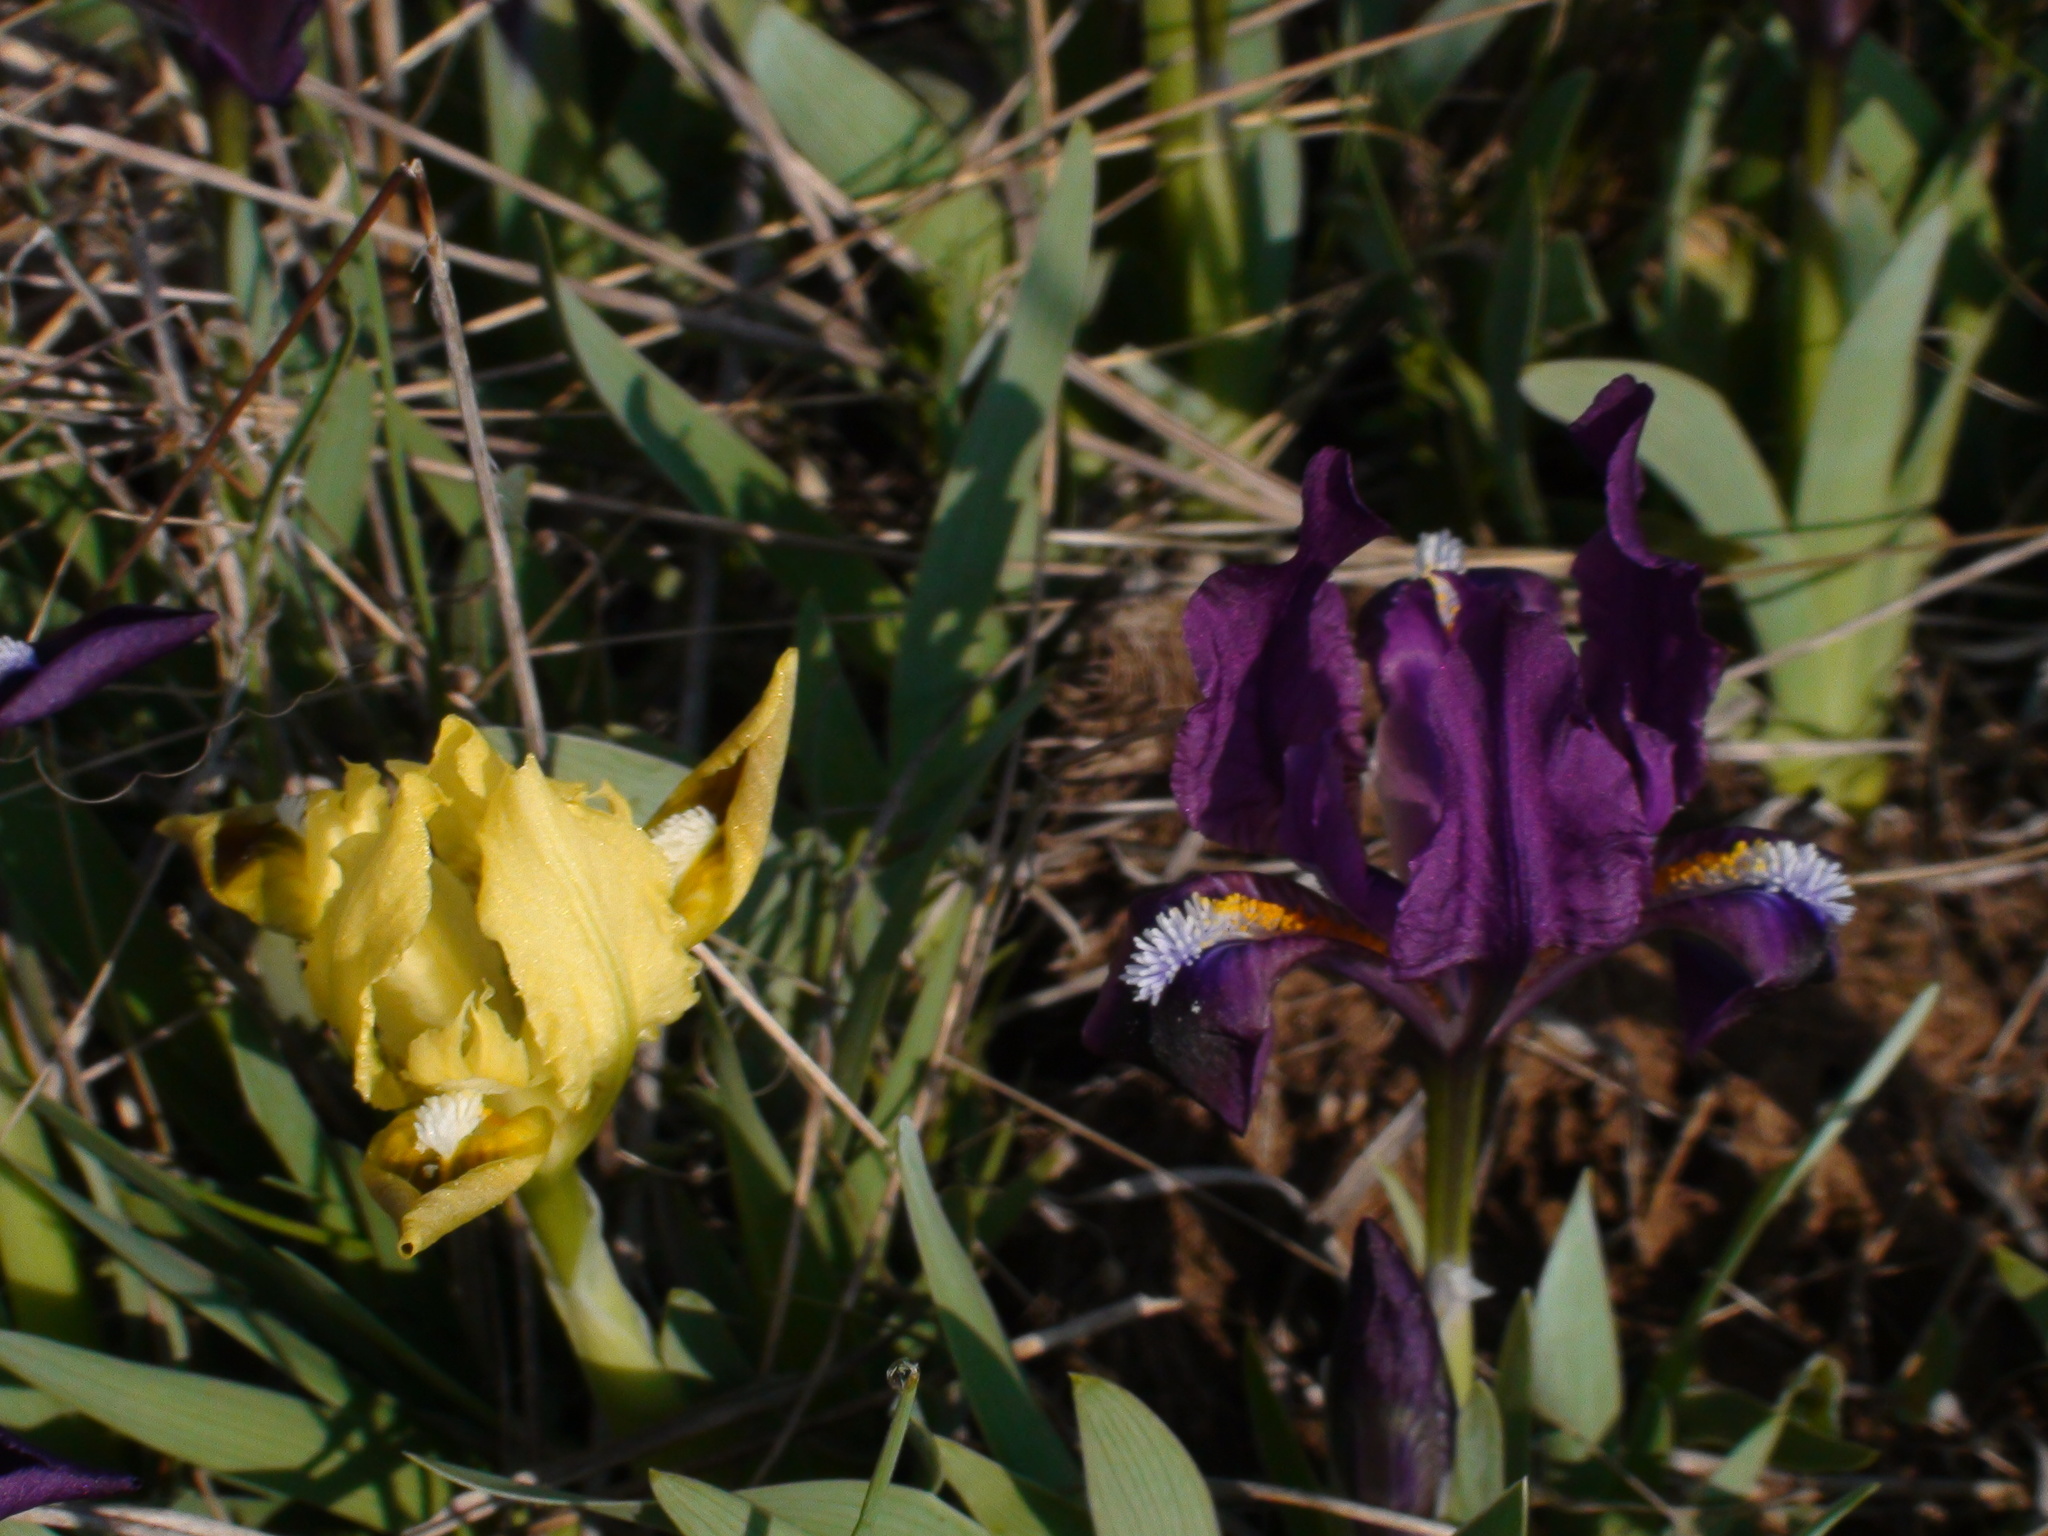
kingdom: Plantae
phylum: Tracheophyta
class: Liliopsida
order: Asparagales
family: Iridaceae
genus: Iris
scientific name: Iris pumila
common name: Dwarf iris
